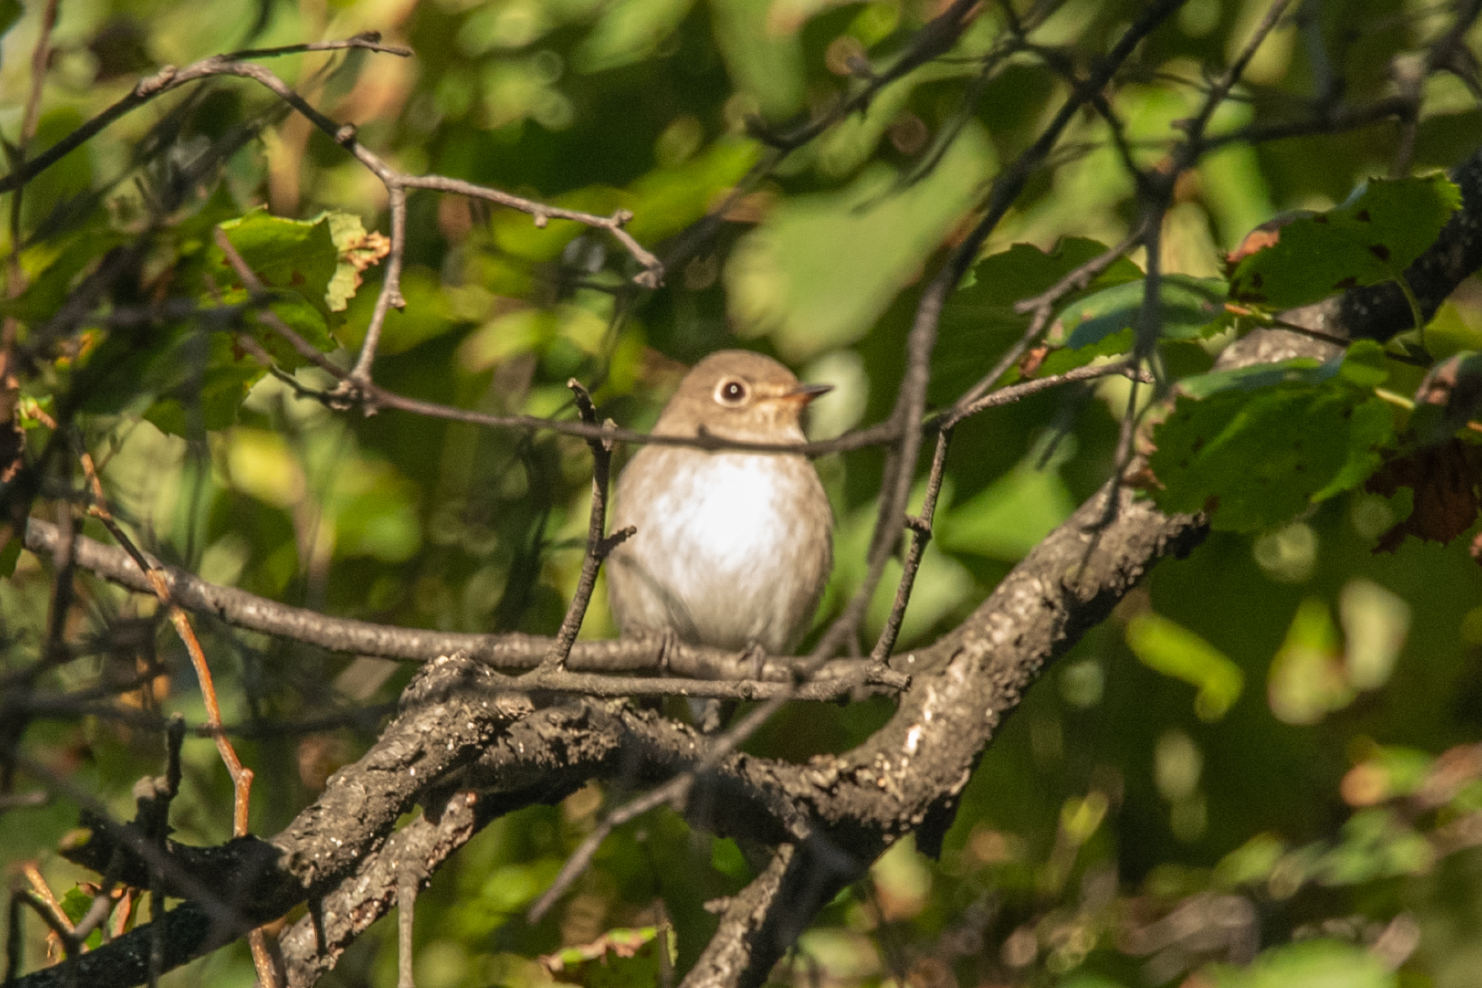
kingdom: Animalia
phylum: Chordata
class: Aves
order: Passeriformes
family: Muscicapidae
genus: Muscicapa
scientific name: Muscicapa latirostris
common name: Asian brown flycatcher
